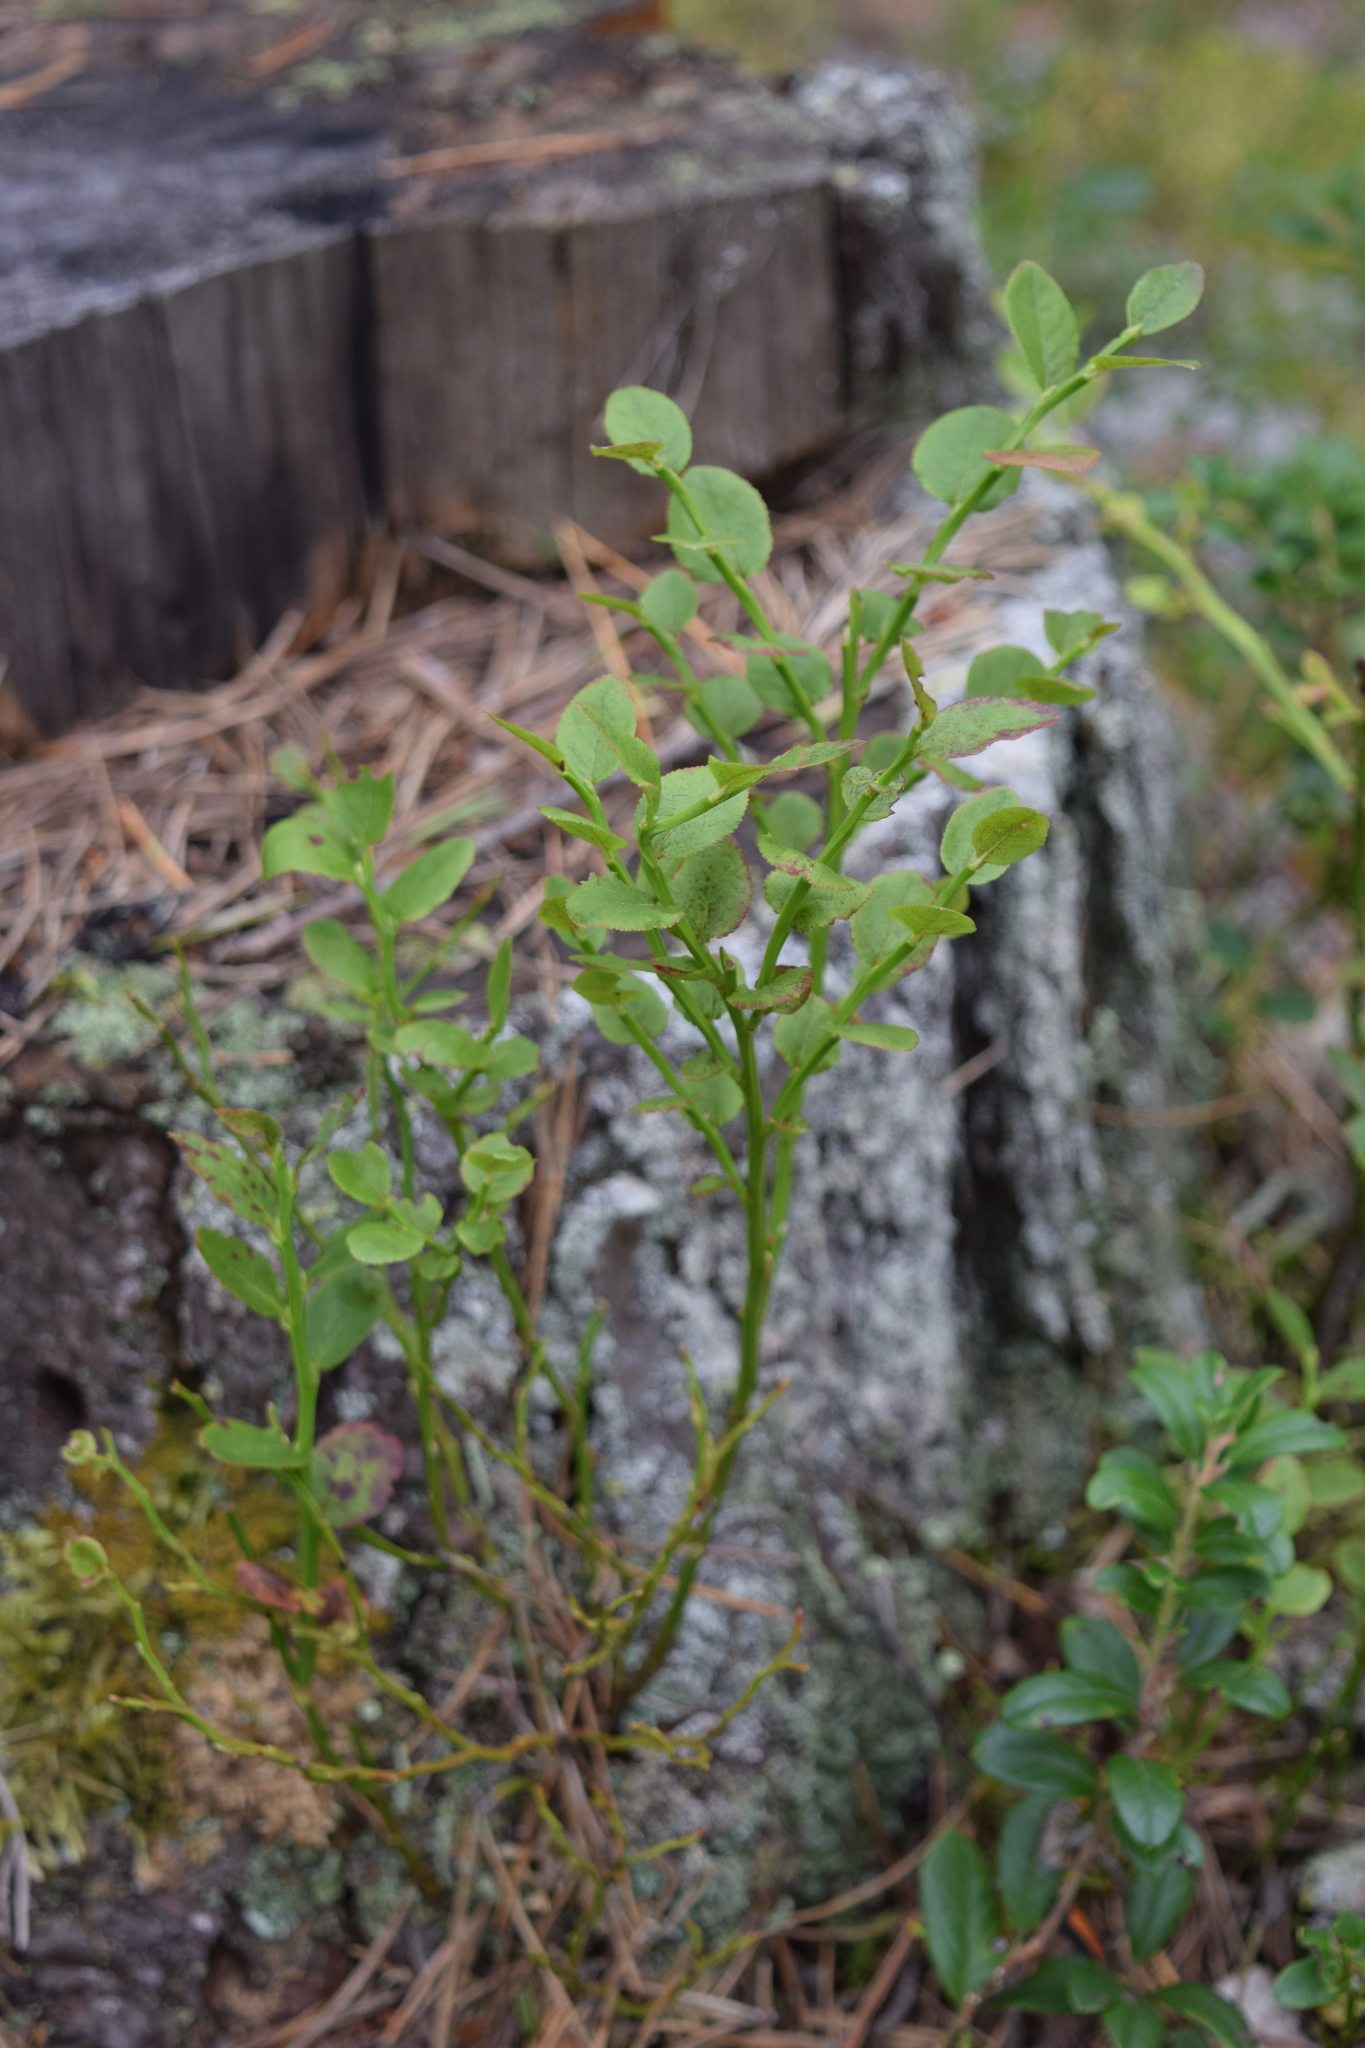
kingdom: Plantae
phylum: Tracheophyta
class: Magnoliopsida
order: Ericales
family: Ericaceae
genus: Vaccinium
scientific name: Vaccinium myrtillus
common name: Bilberry
